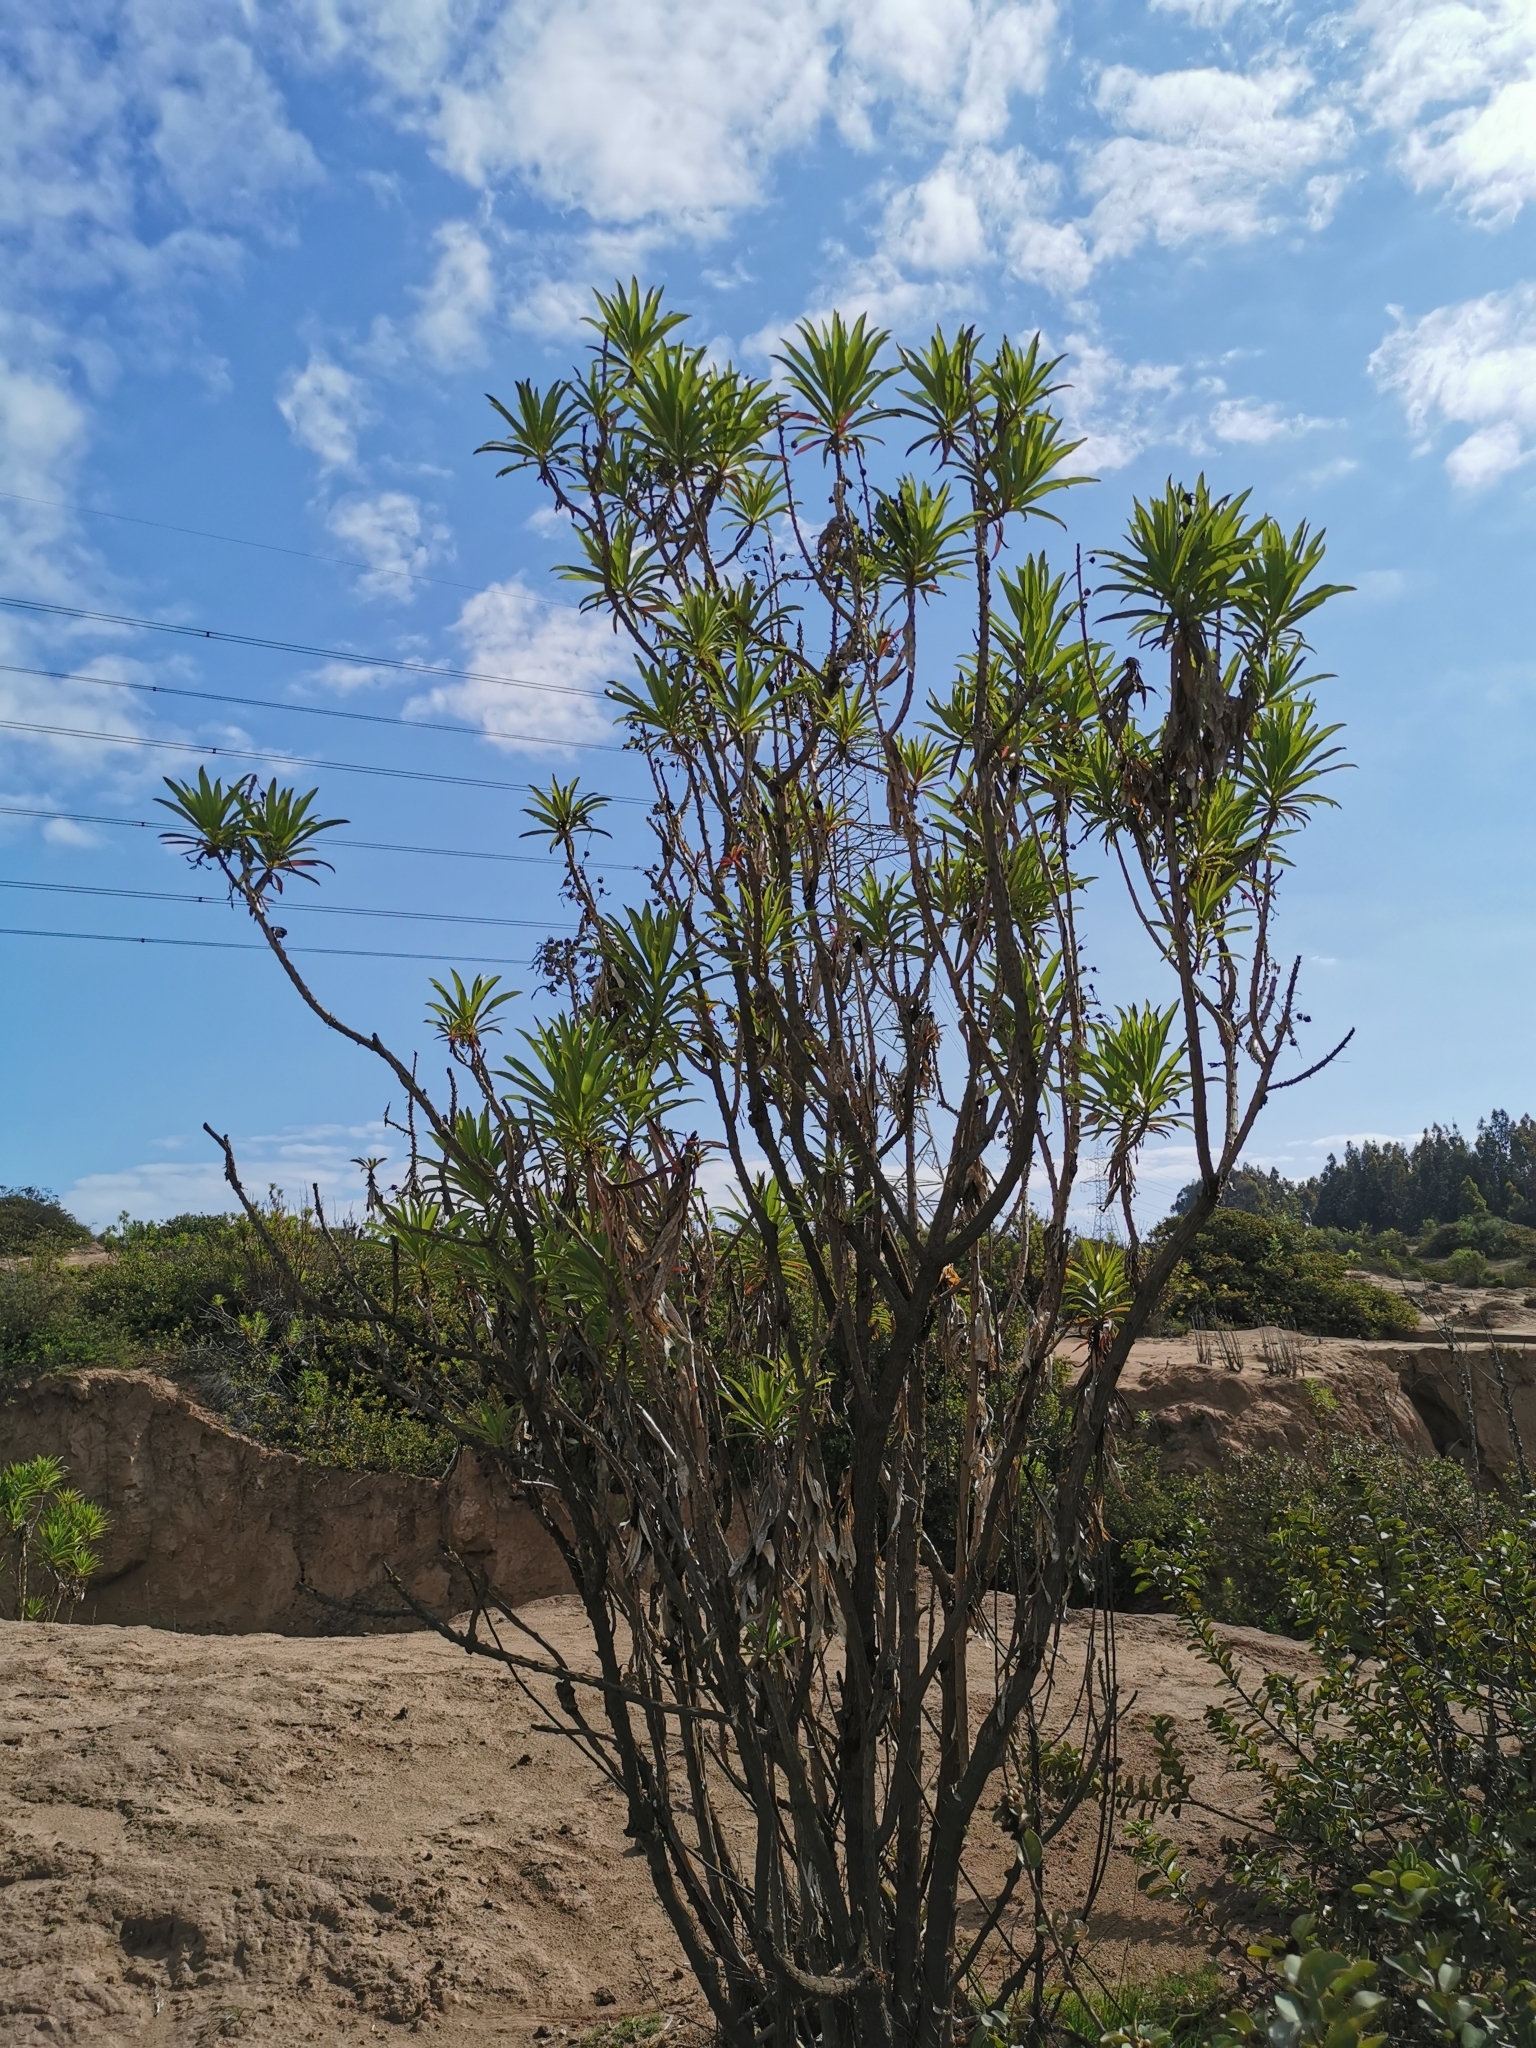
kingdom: Plantae
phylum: Tracheophyta
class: Magnoliopsida
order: Asterales
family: Campanulaceae
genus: Lobelia
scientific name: Lobelia excelsa
